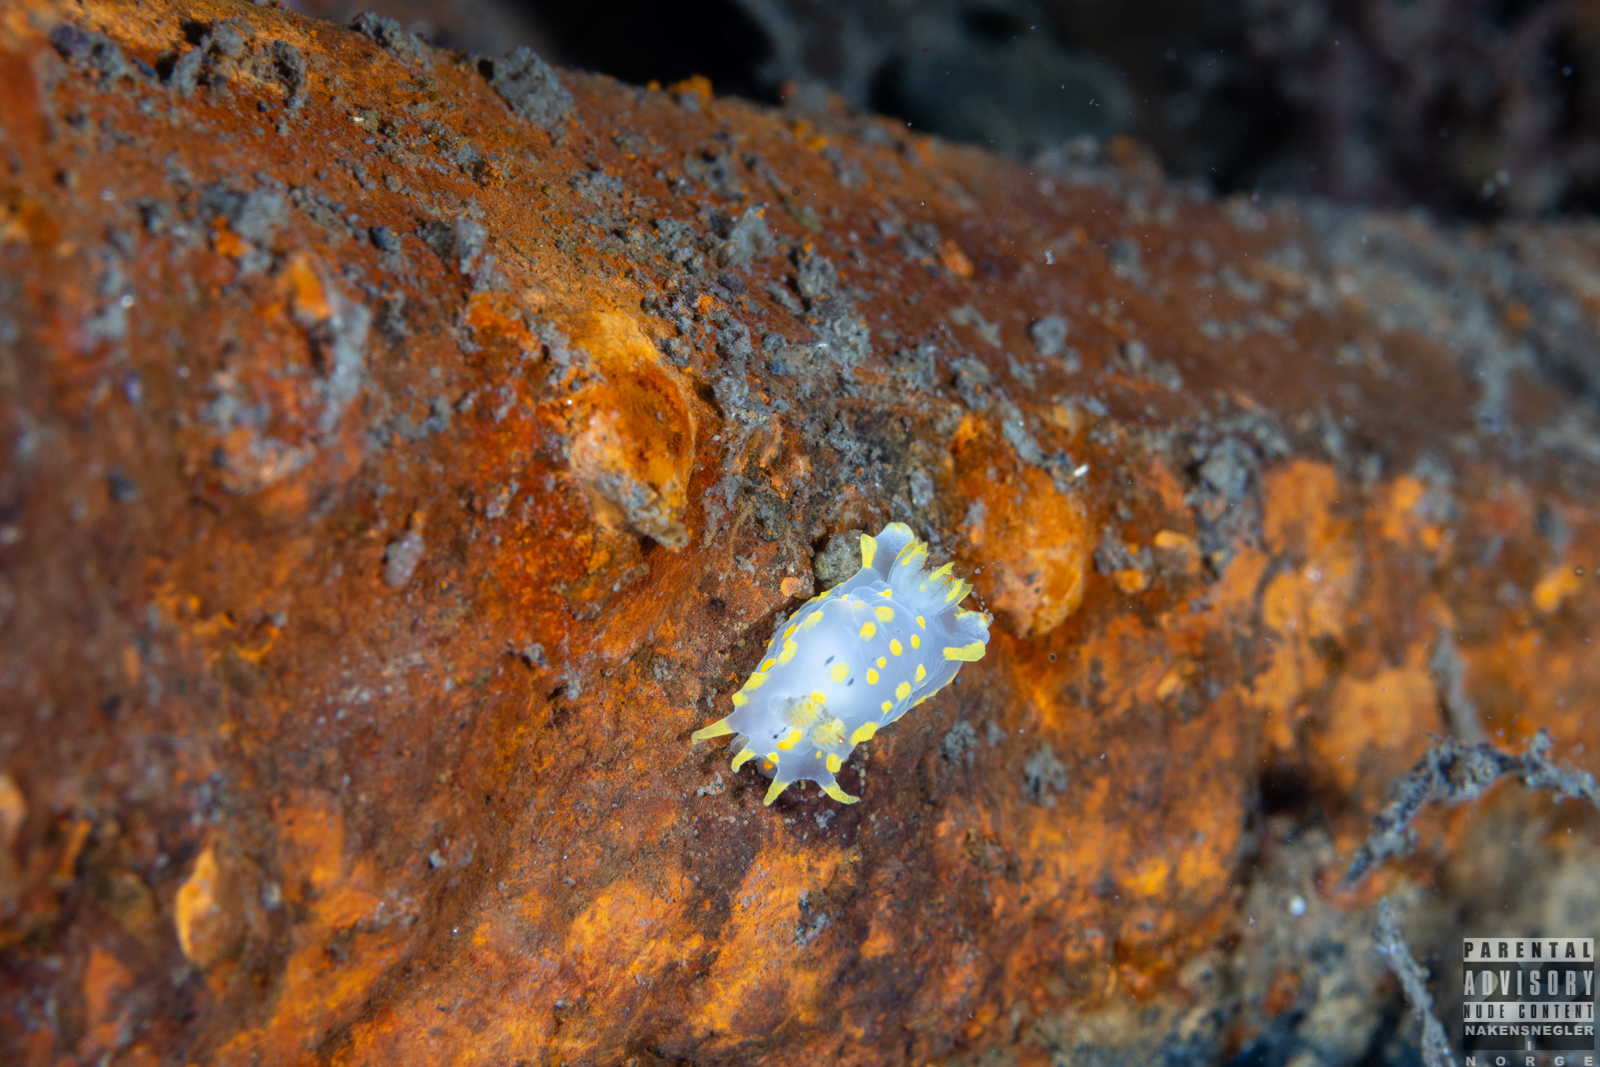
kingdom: Animalia
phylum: Mollusca
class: Gastropoda
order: Nudibranchia
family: Polyceridae
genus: Polycera
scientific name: Polycera quadrilineata
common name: Four-striped polycera
